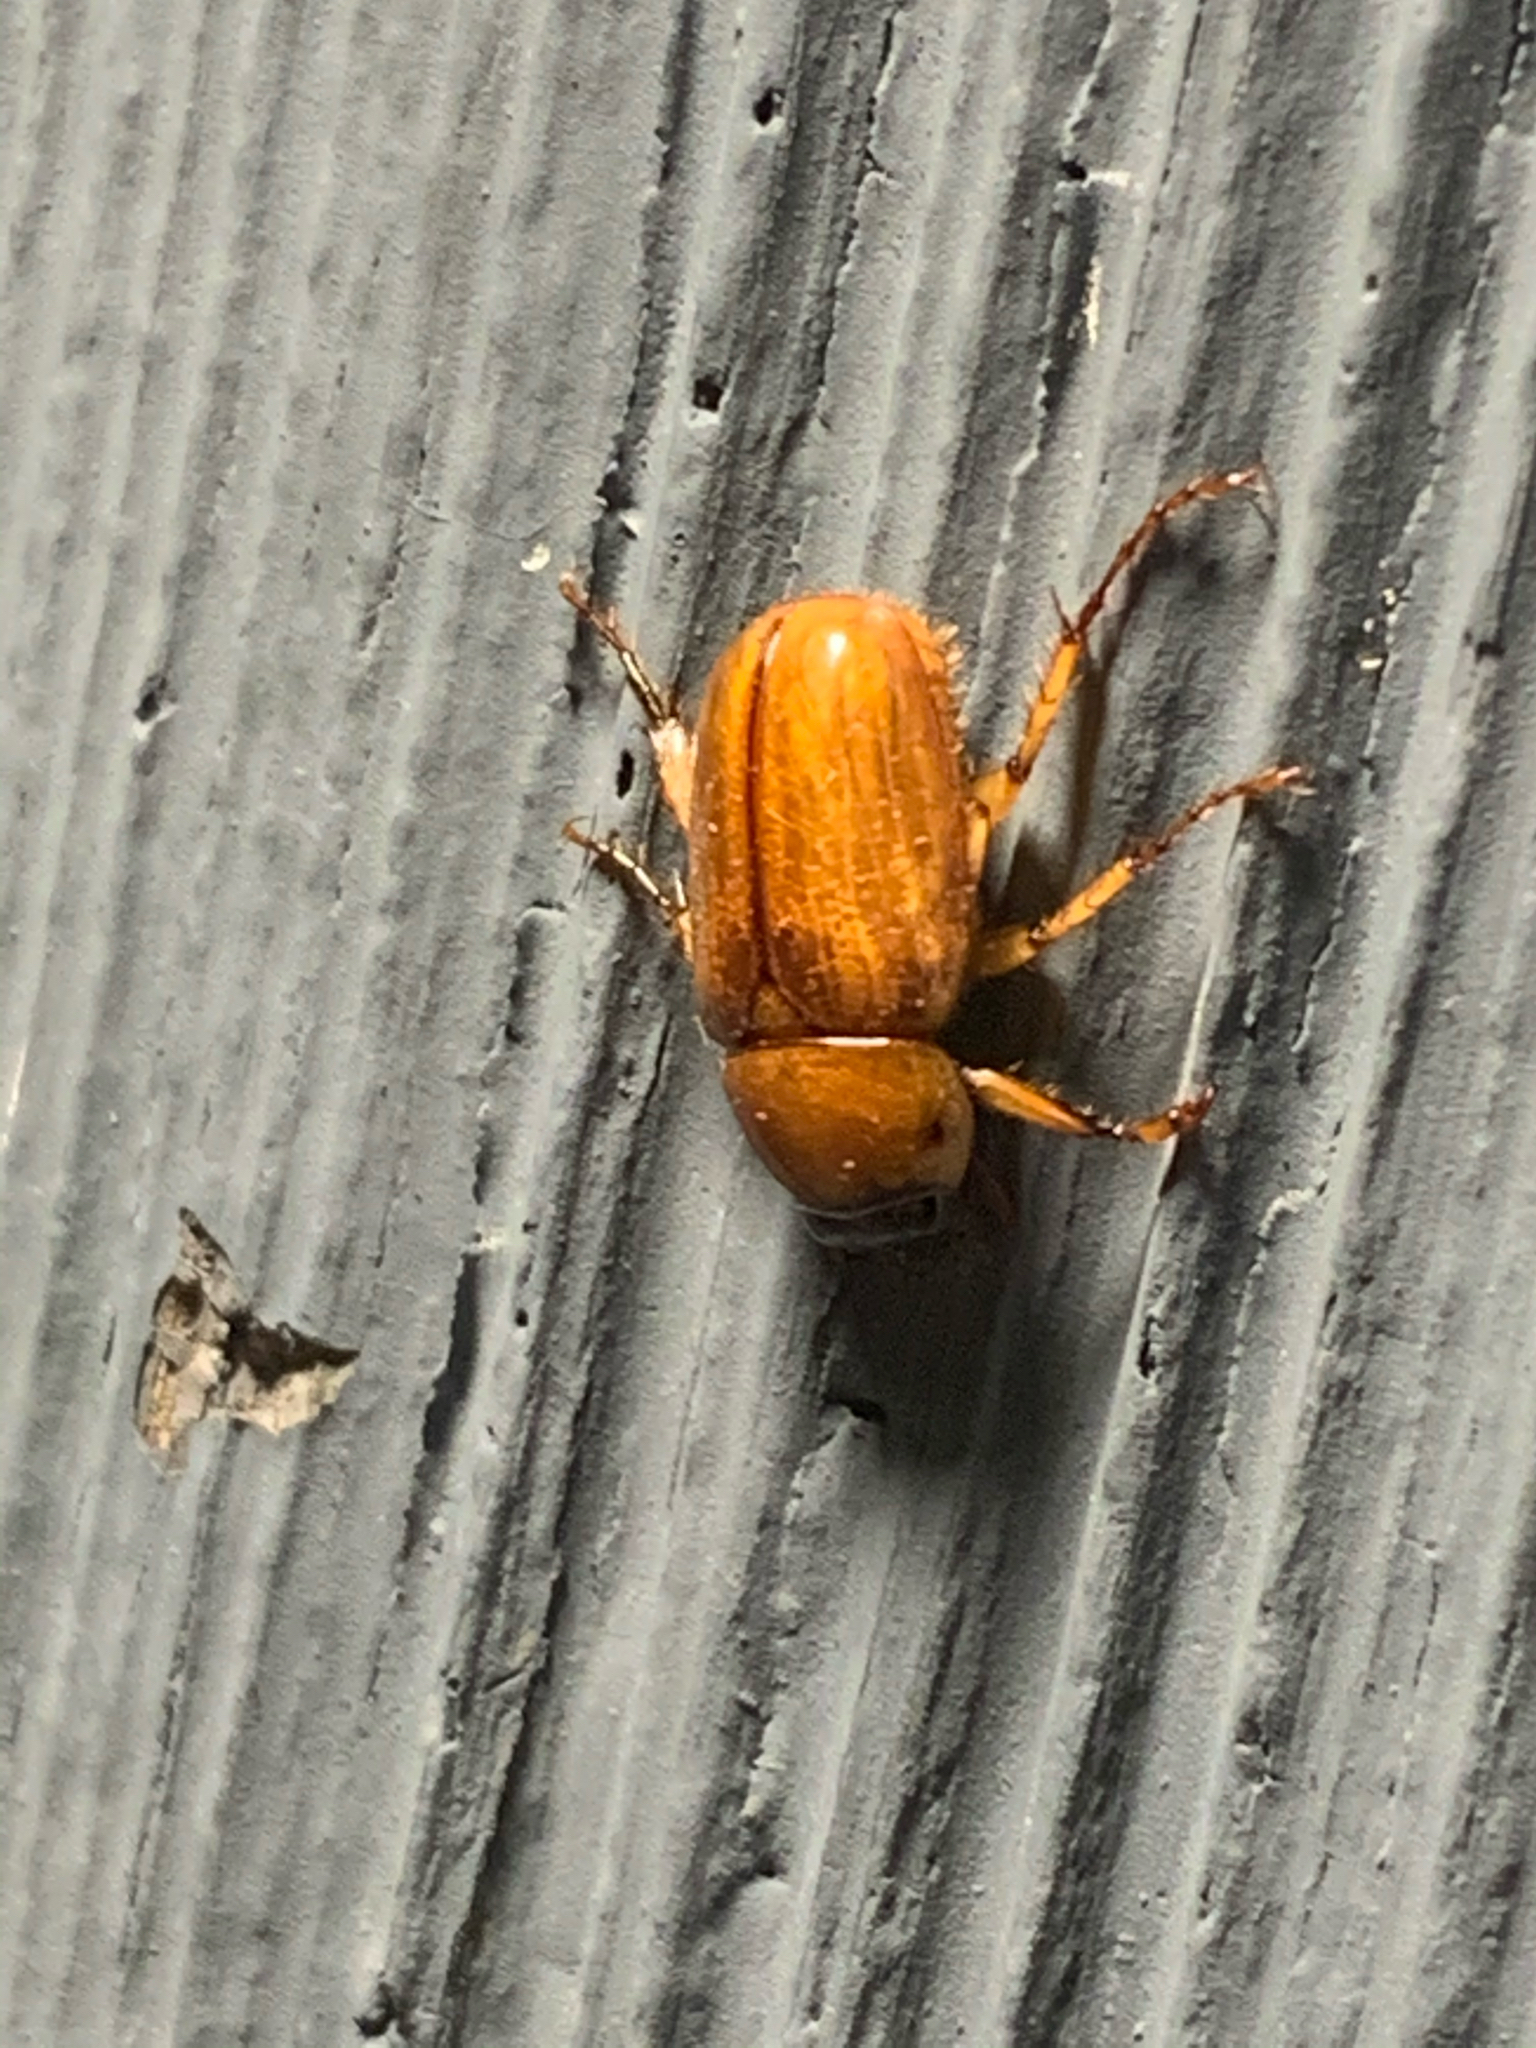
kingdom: Animalia
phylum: Arthropoda
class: Insecta
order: Coleoptera
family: Scarabaeidae
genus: Cyclocephala
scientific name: Cyclocephala lurida
